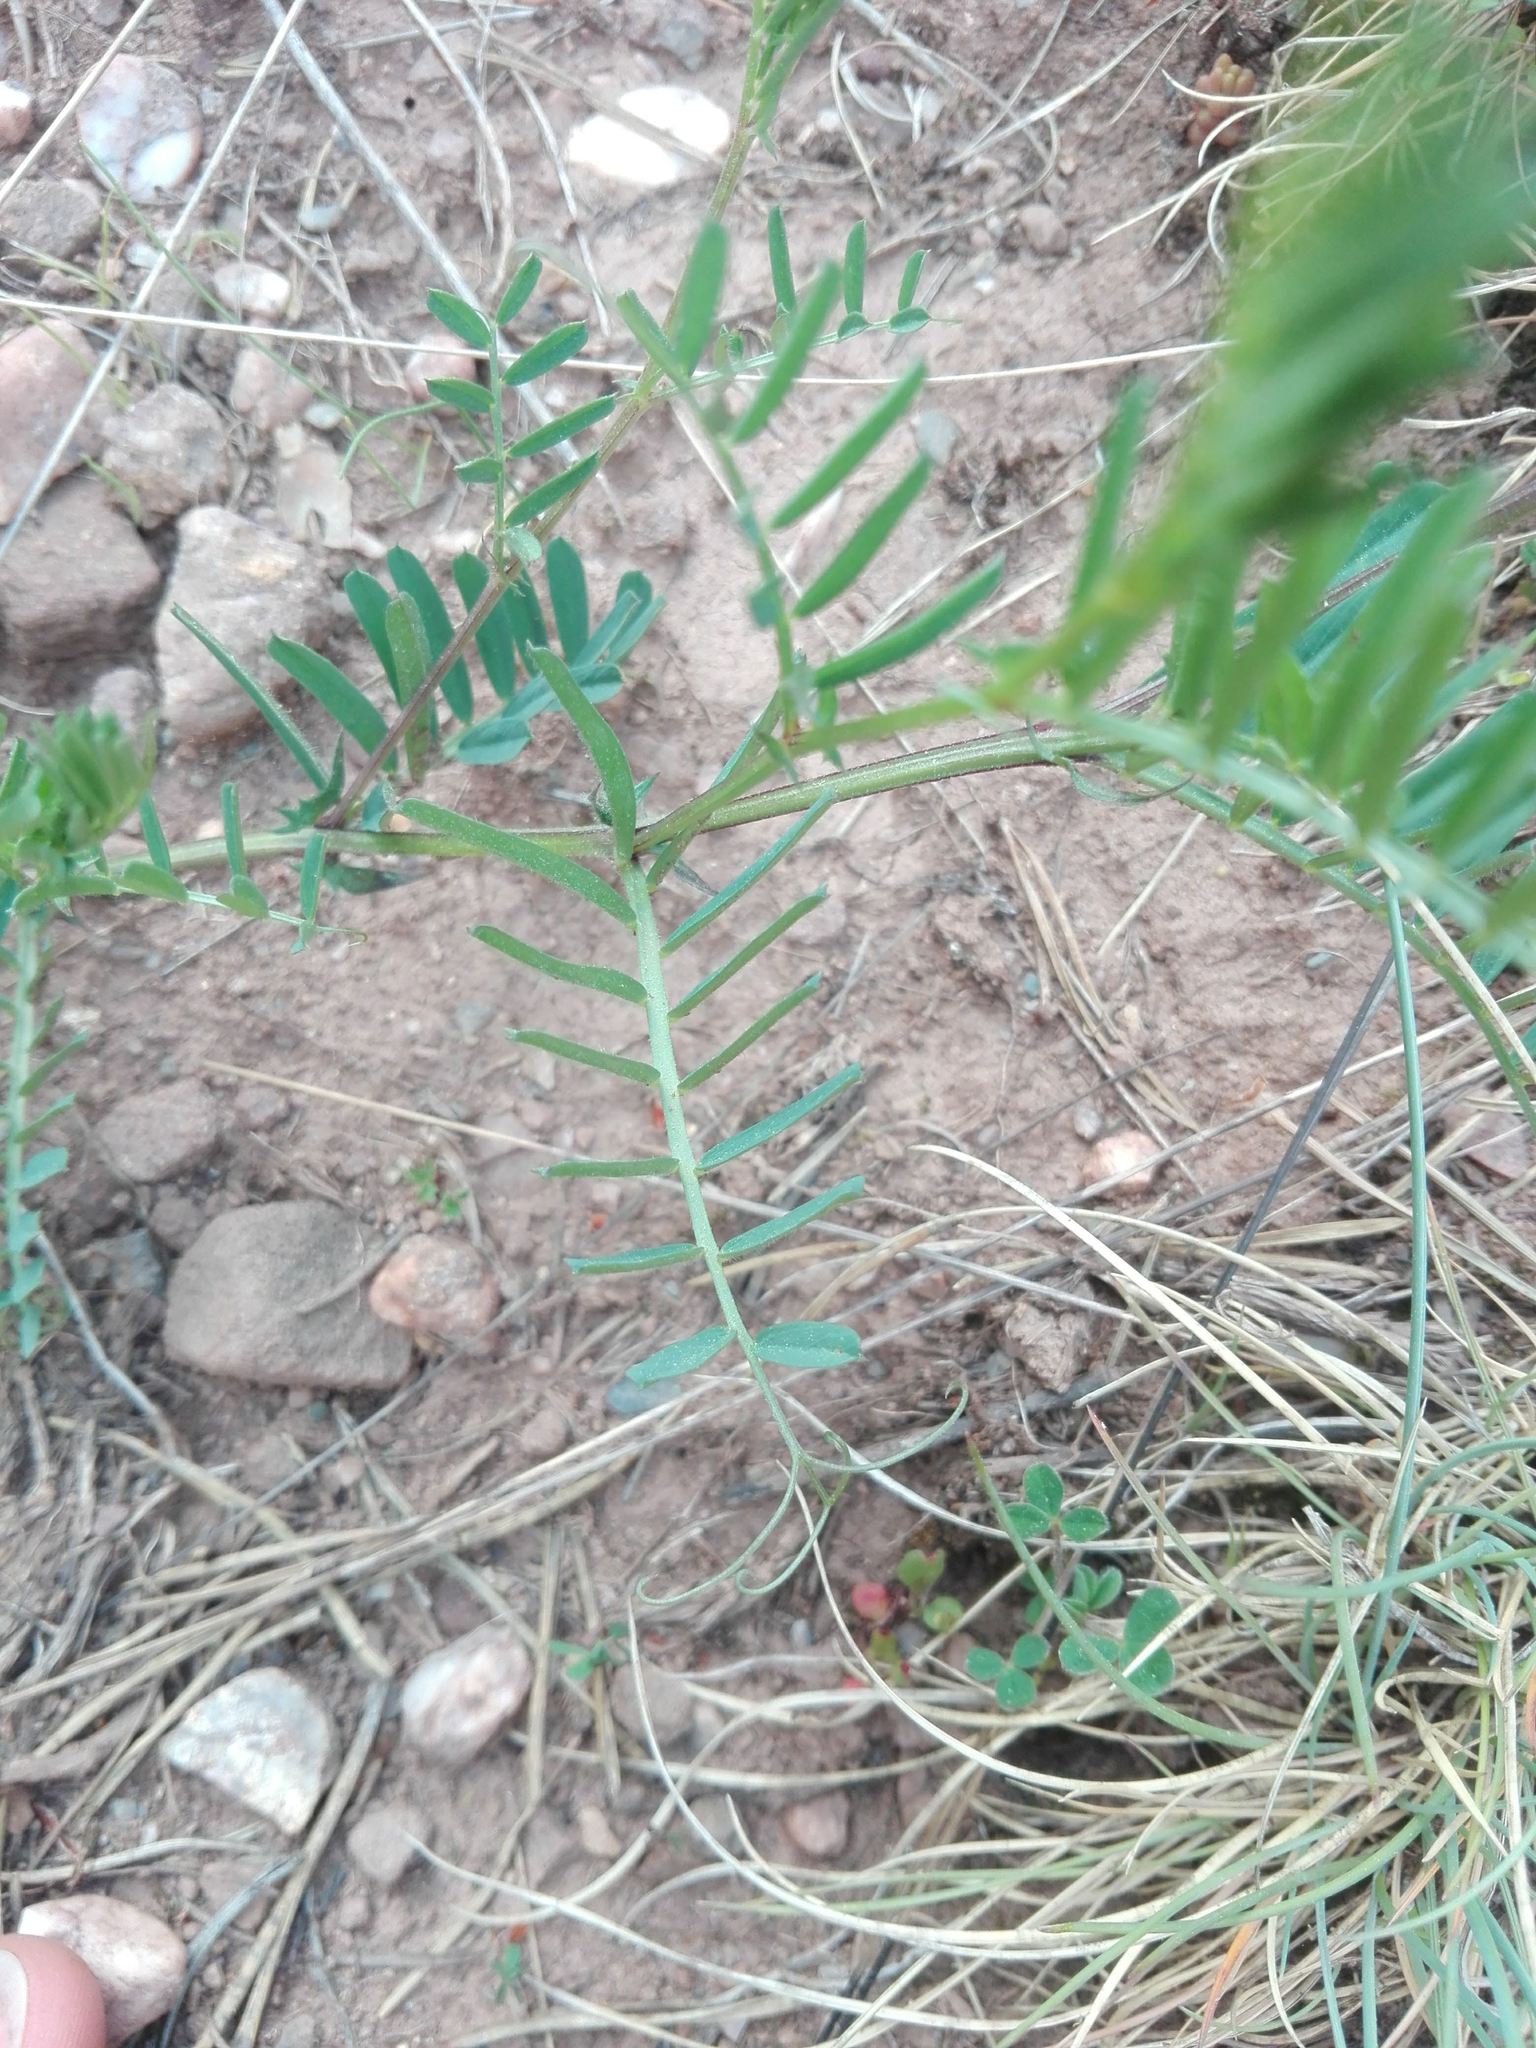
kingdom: Plantae
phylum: Tracheophyta
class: Magnoliopsida
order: Fabales
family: Fabaceae
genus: Vicia
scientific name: Vicia onobrychioides
